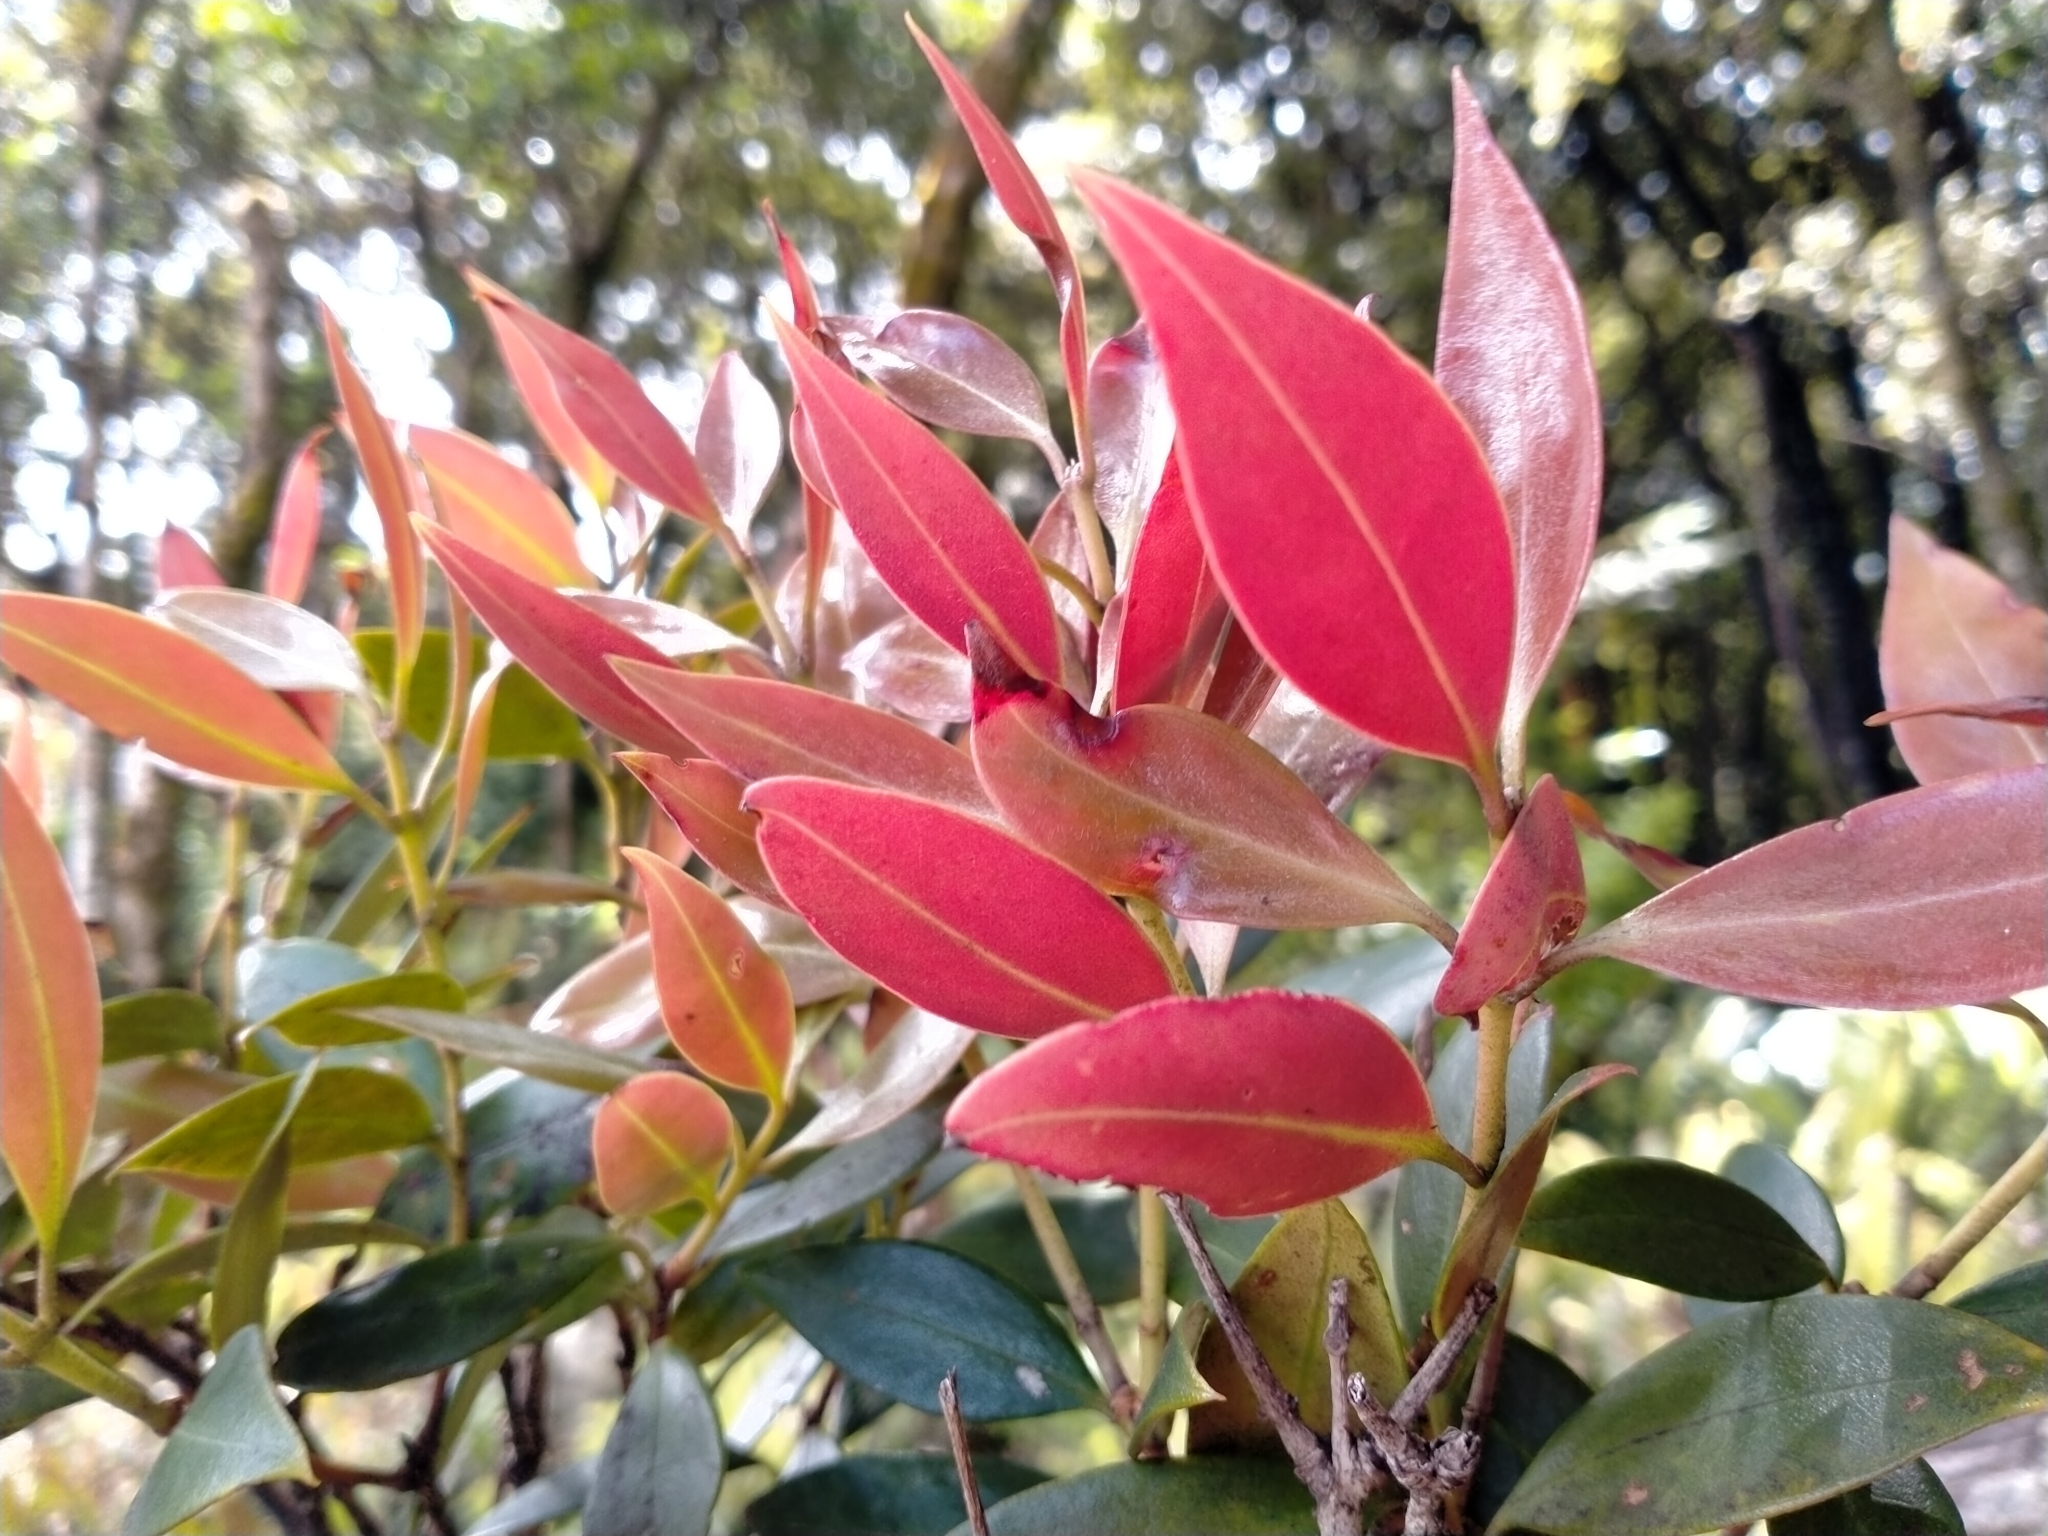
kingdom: Plantae
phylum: Tracheophyta
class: Magnoliopsida
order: Myrtales
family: Myrtaceae
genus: Metrosideros
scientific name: Metrosideros umbellata
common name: Southern rata
